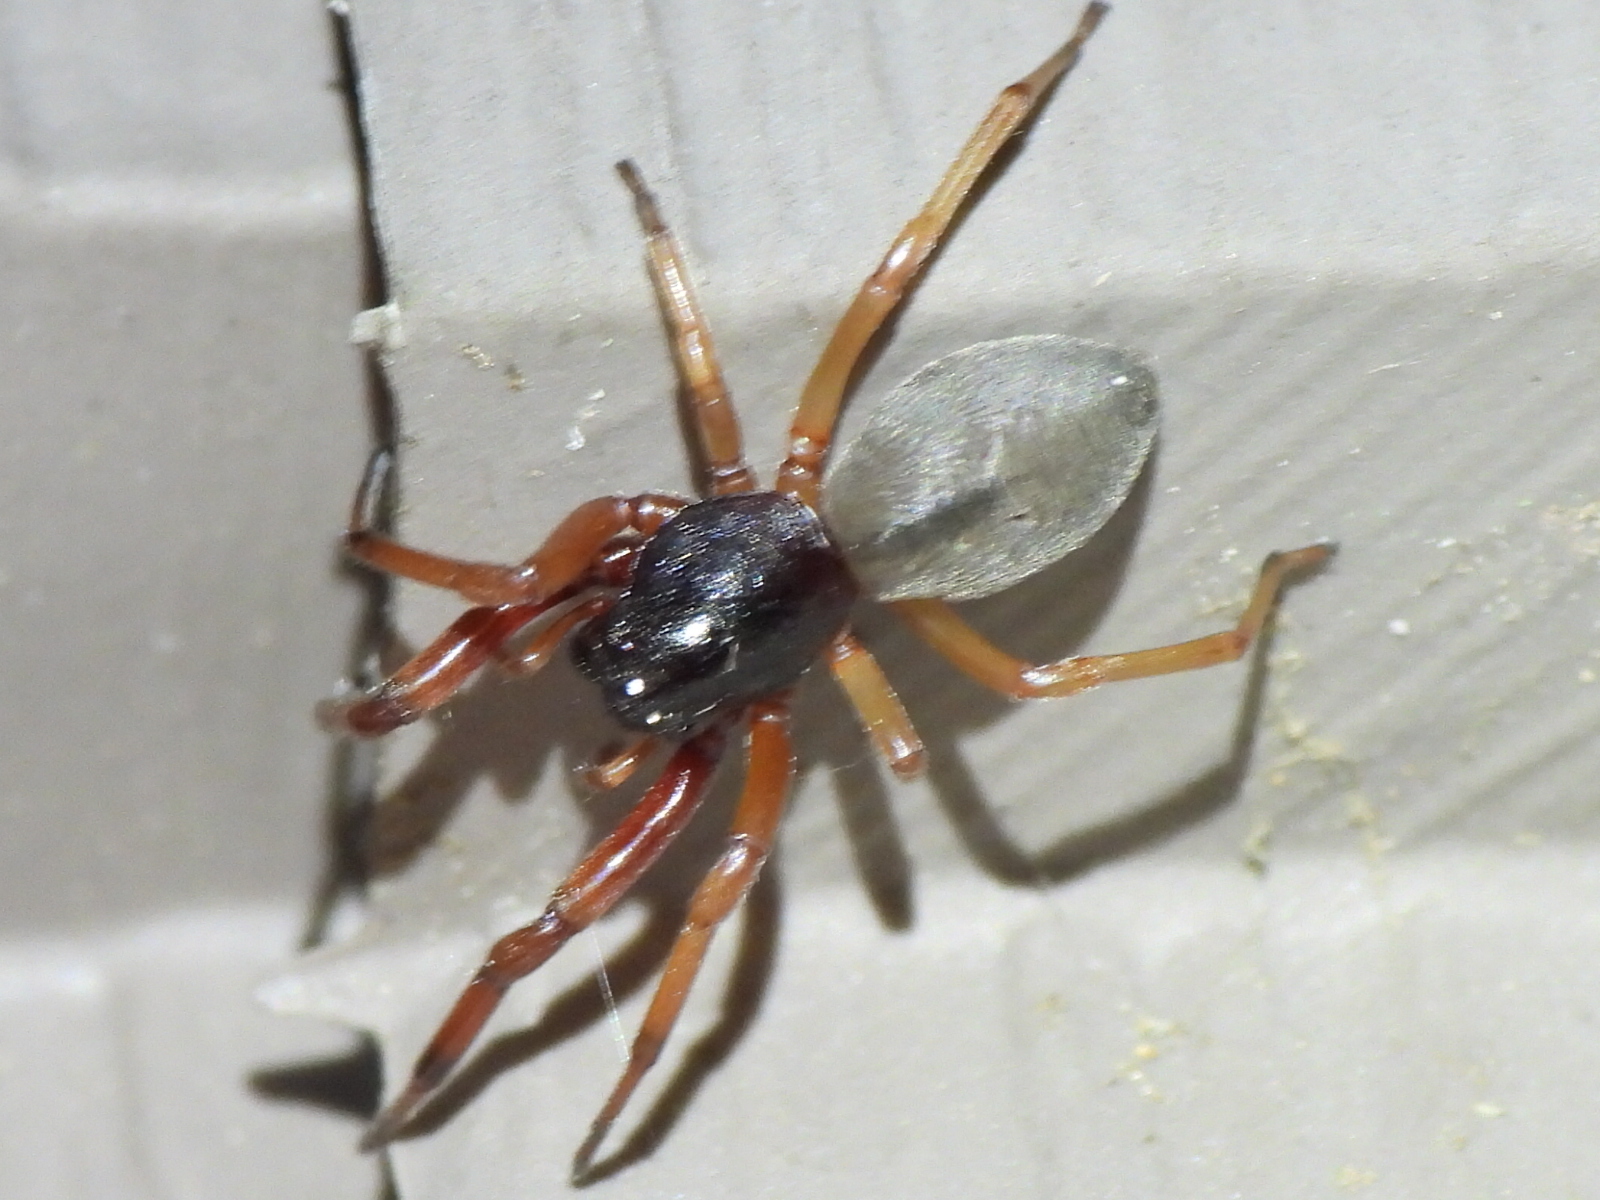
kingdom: Animalia
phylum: Arthropoda
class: Arachnida
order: Araneae
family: Trachelidae
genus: Trachelas
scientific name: Trachelas tranquillus
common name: Broad-faced sac spider
